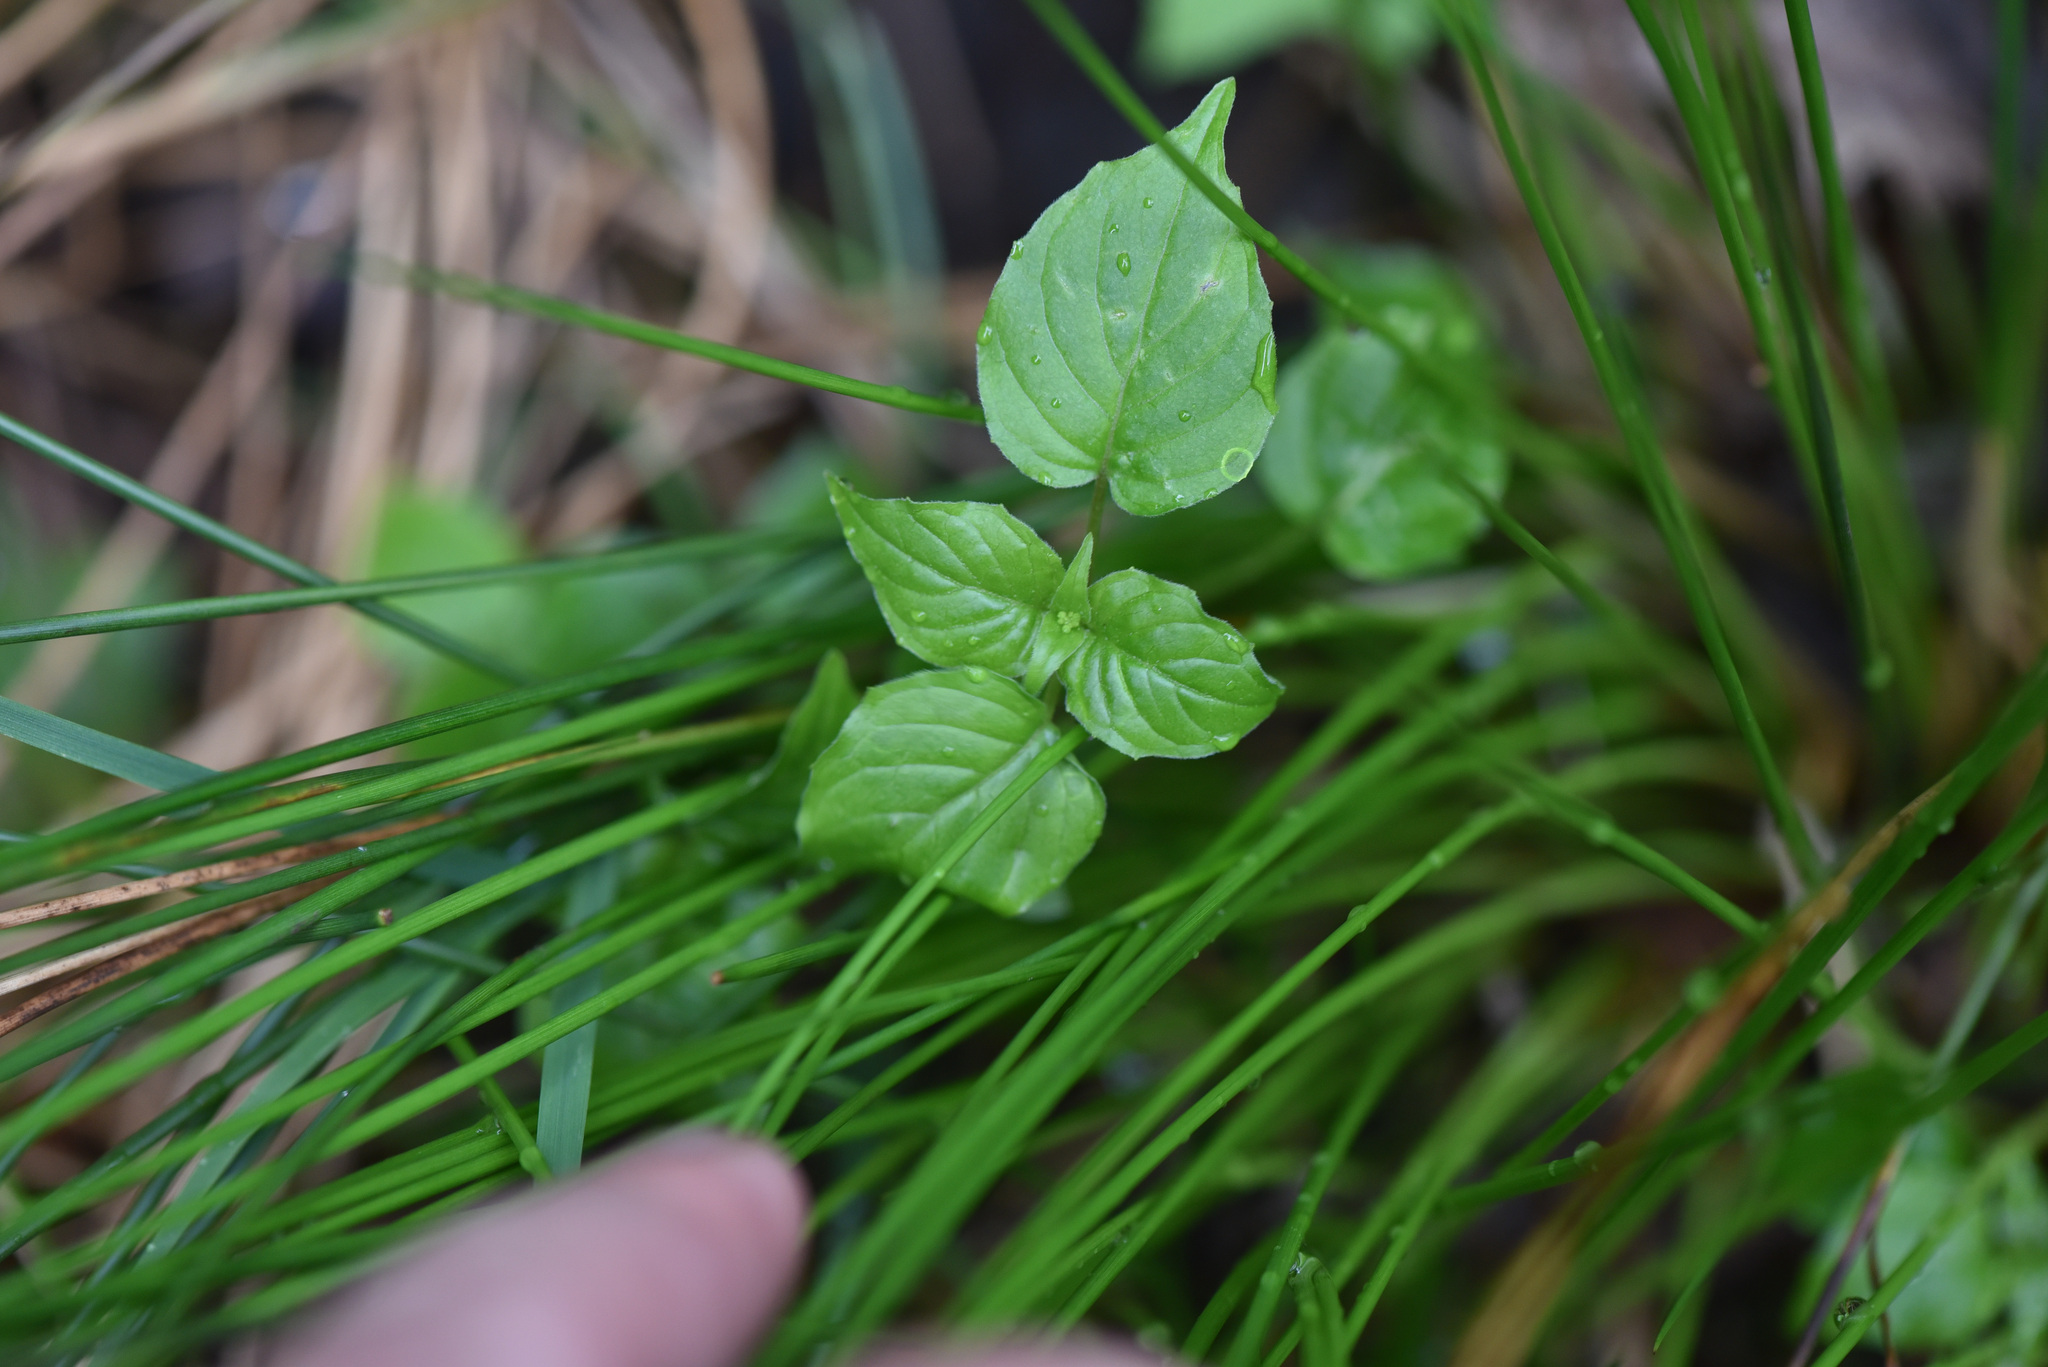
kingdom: Plantae
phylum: Tracheophyta
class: Magnoliopsida
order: Myrtales
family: Onagraceae
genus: Circaea
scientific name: Circaea alpina
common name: Alpine enchanter's-nightshade
